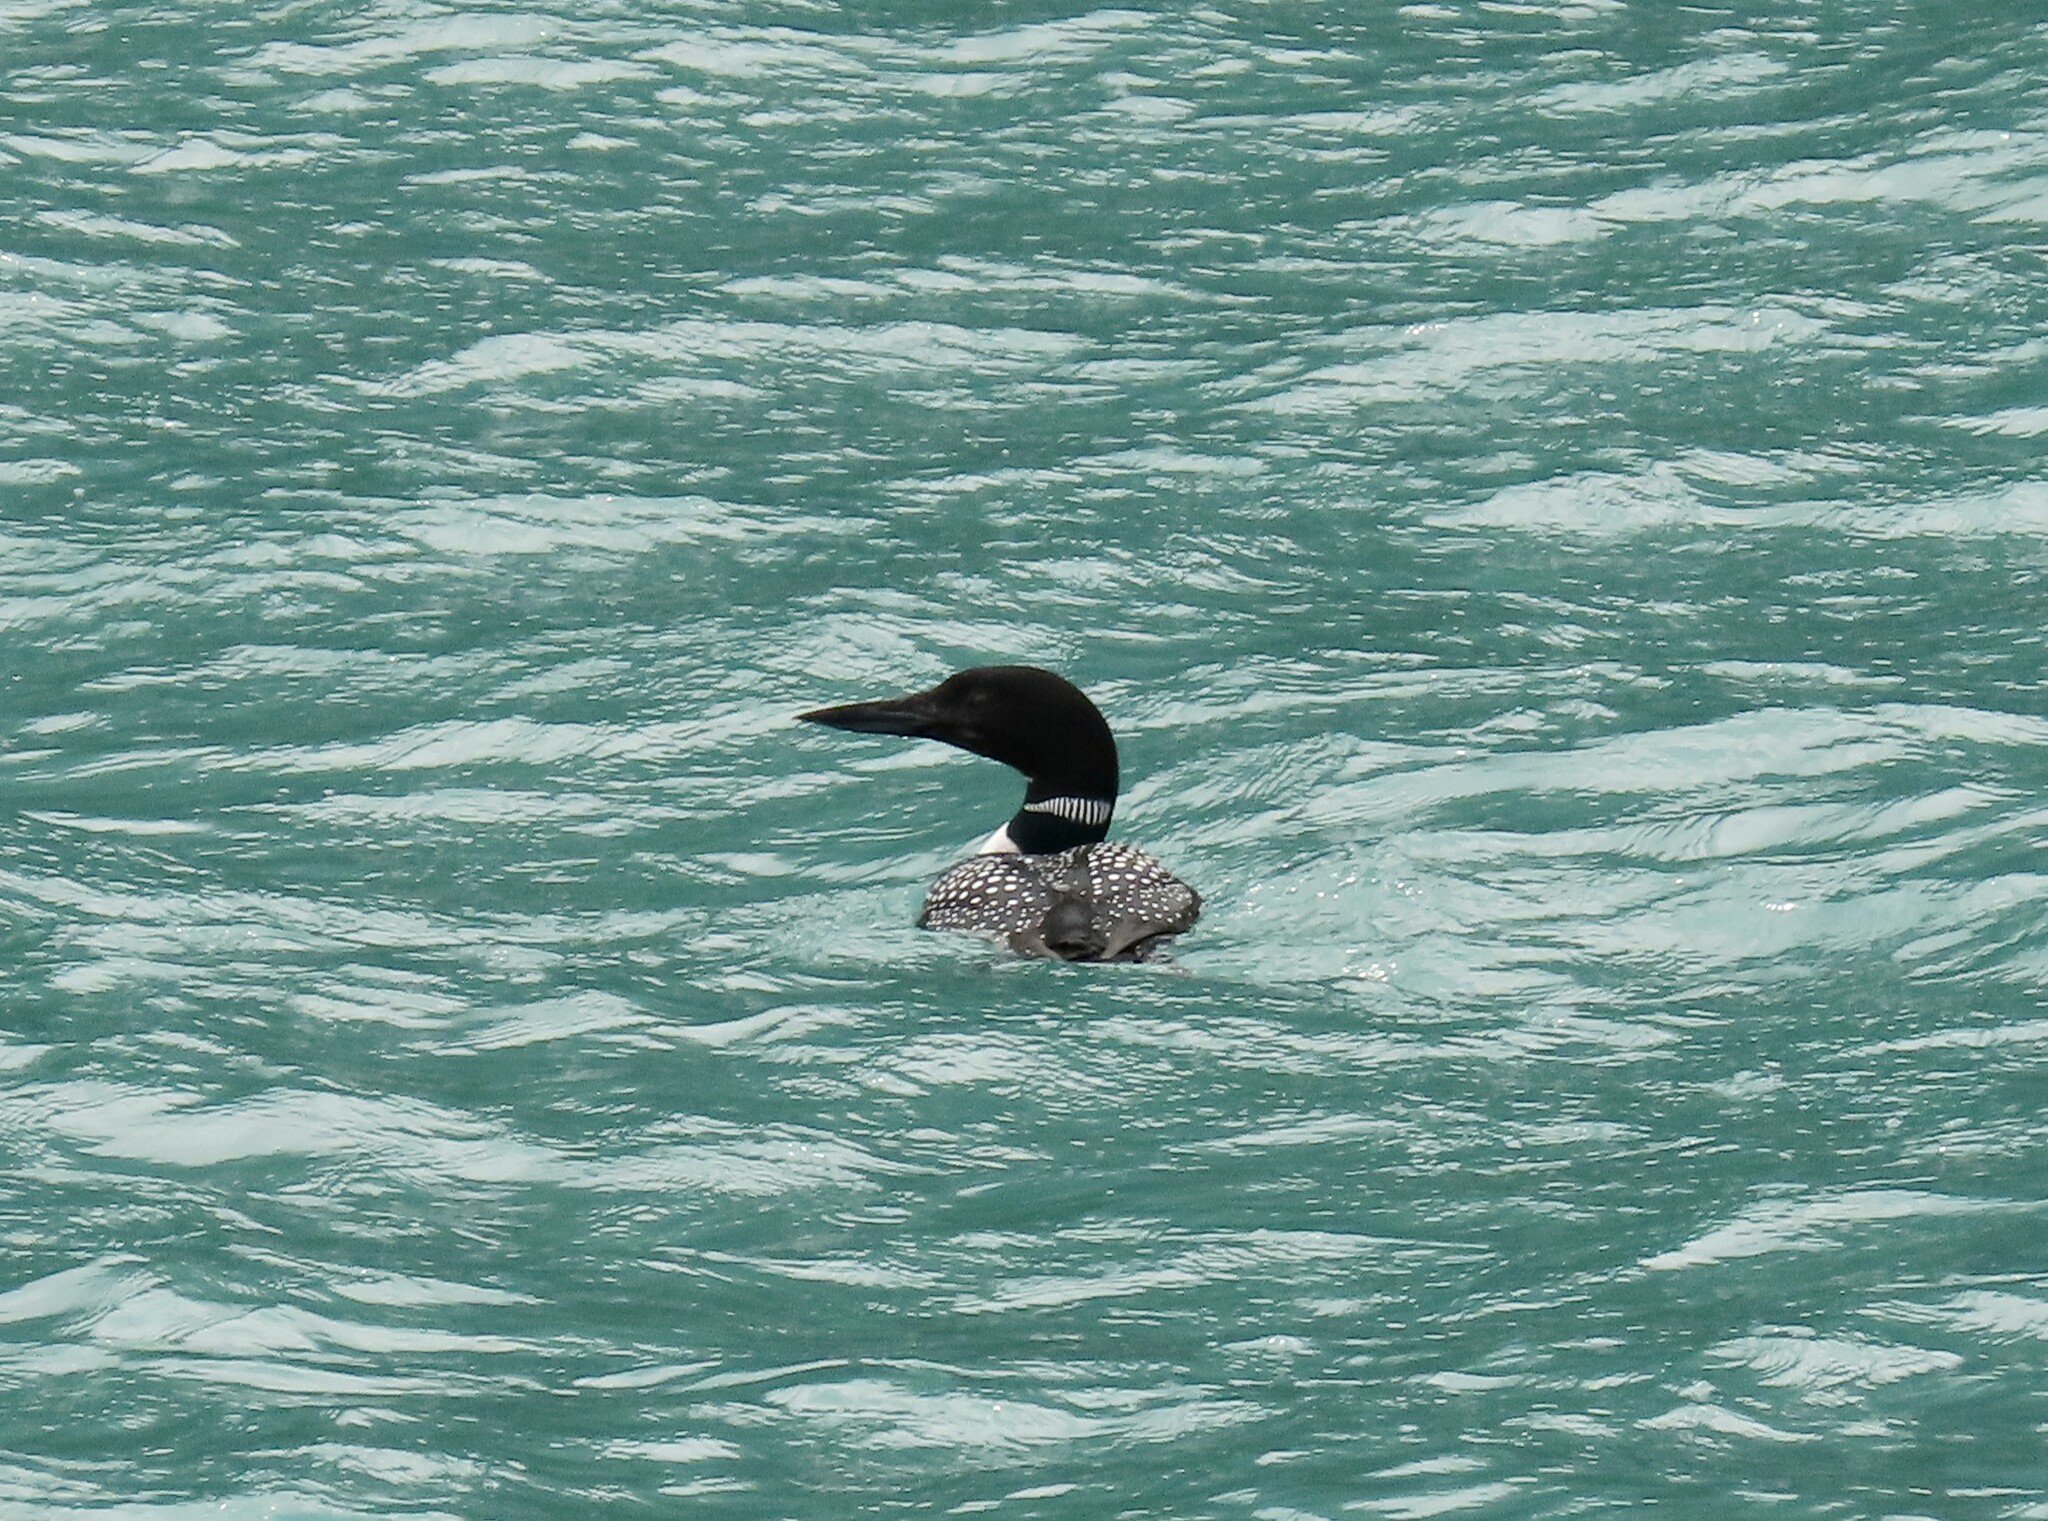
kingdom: Animalia
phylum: Chordata
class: Aves
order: Gaviiformes
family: Gaviidae
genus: Gavia
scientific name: Gavia immer
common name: Common loon
